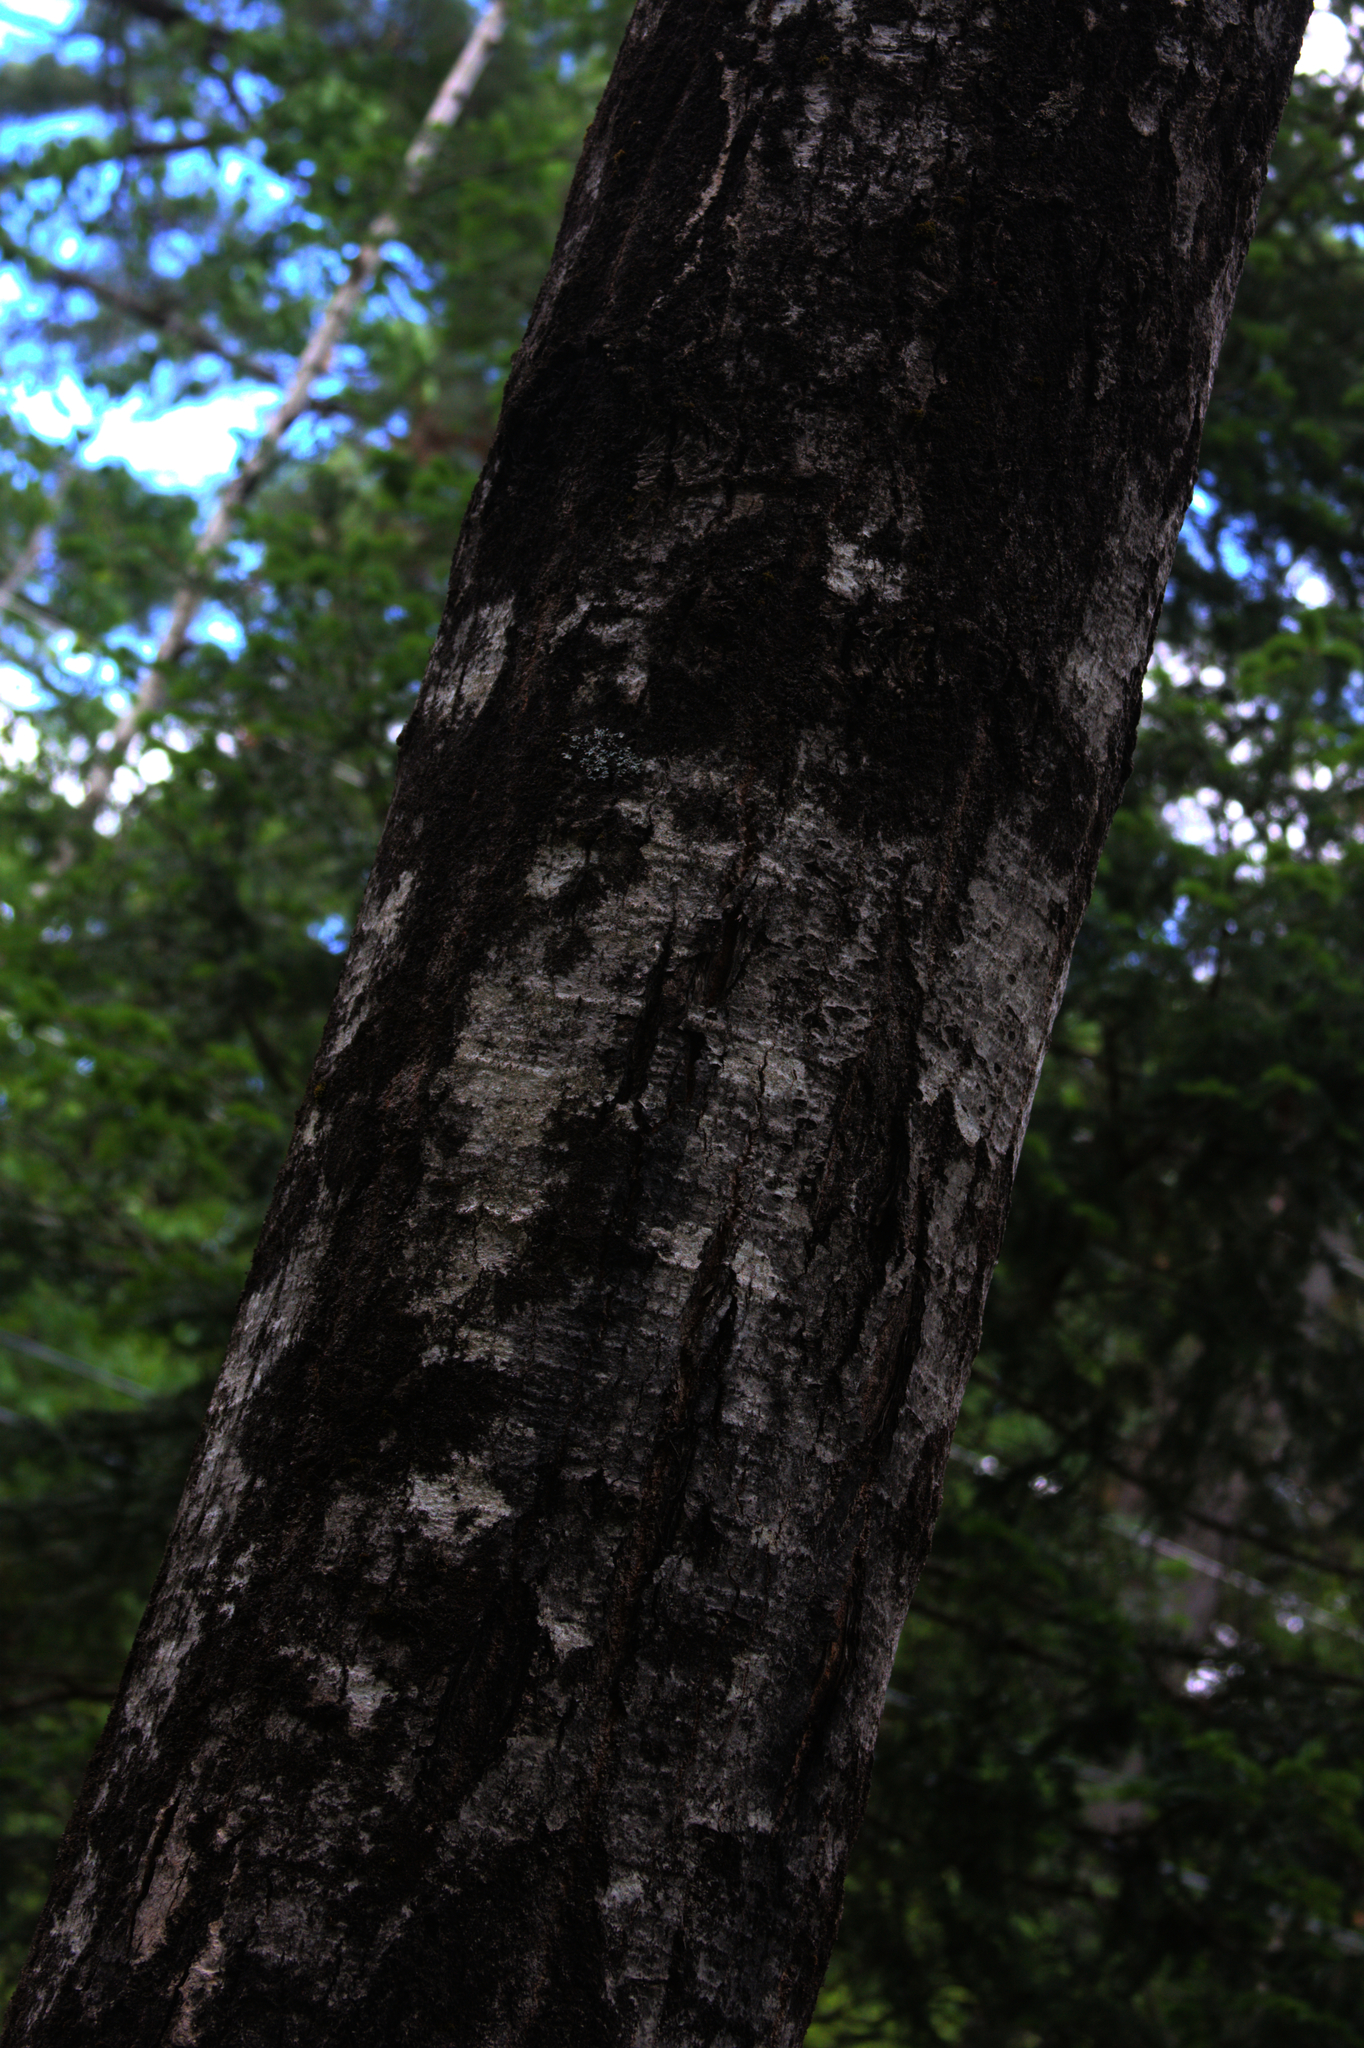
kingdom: Plantae
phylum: Tracheophyta
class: Magnoliopsida
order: Malpighiales
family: Salicaceae
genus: Populus
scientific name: Populus tremuloides
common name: Quaking aspen
